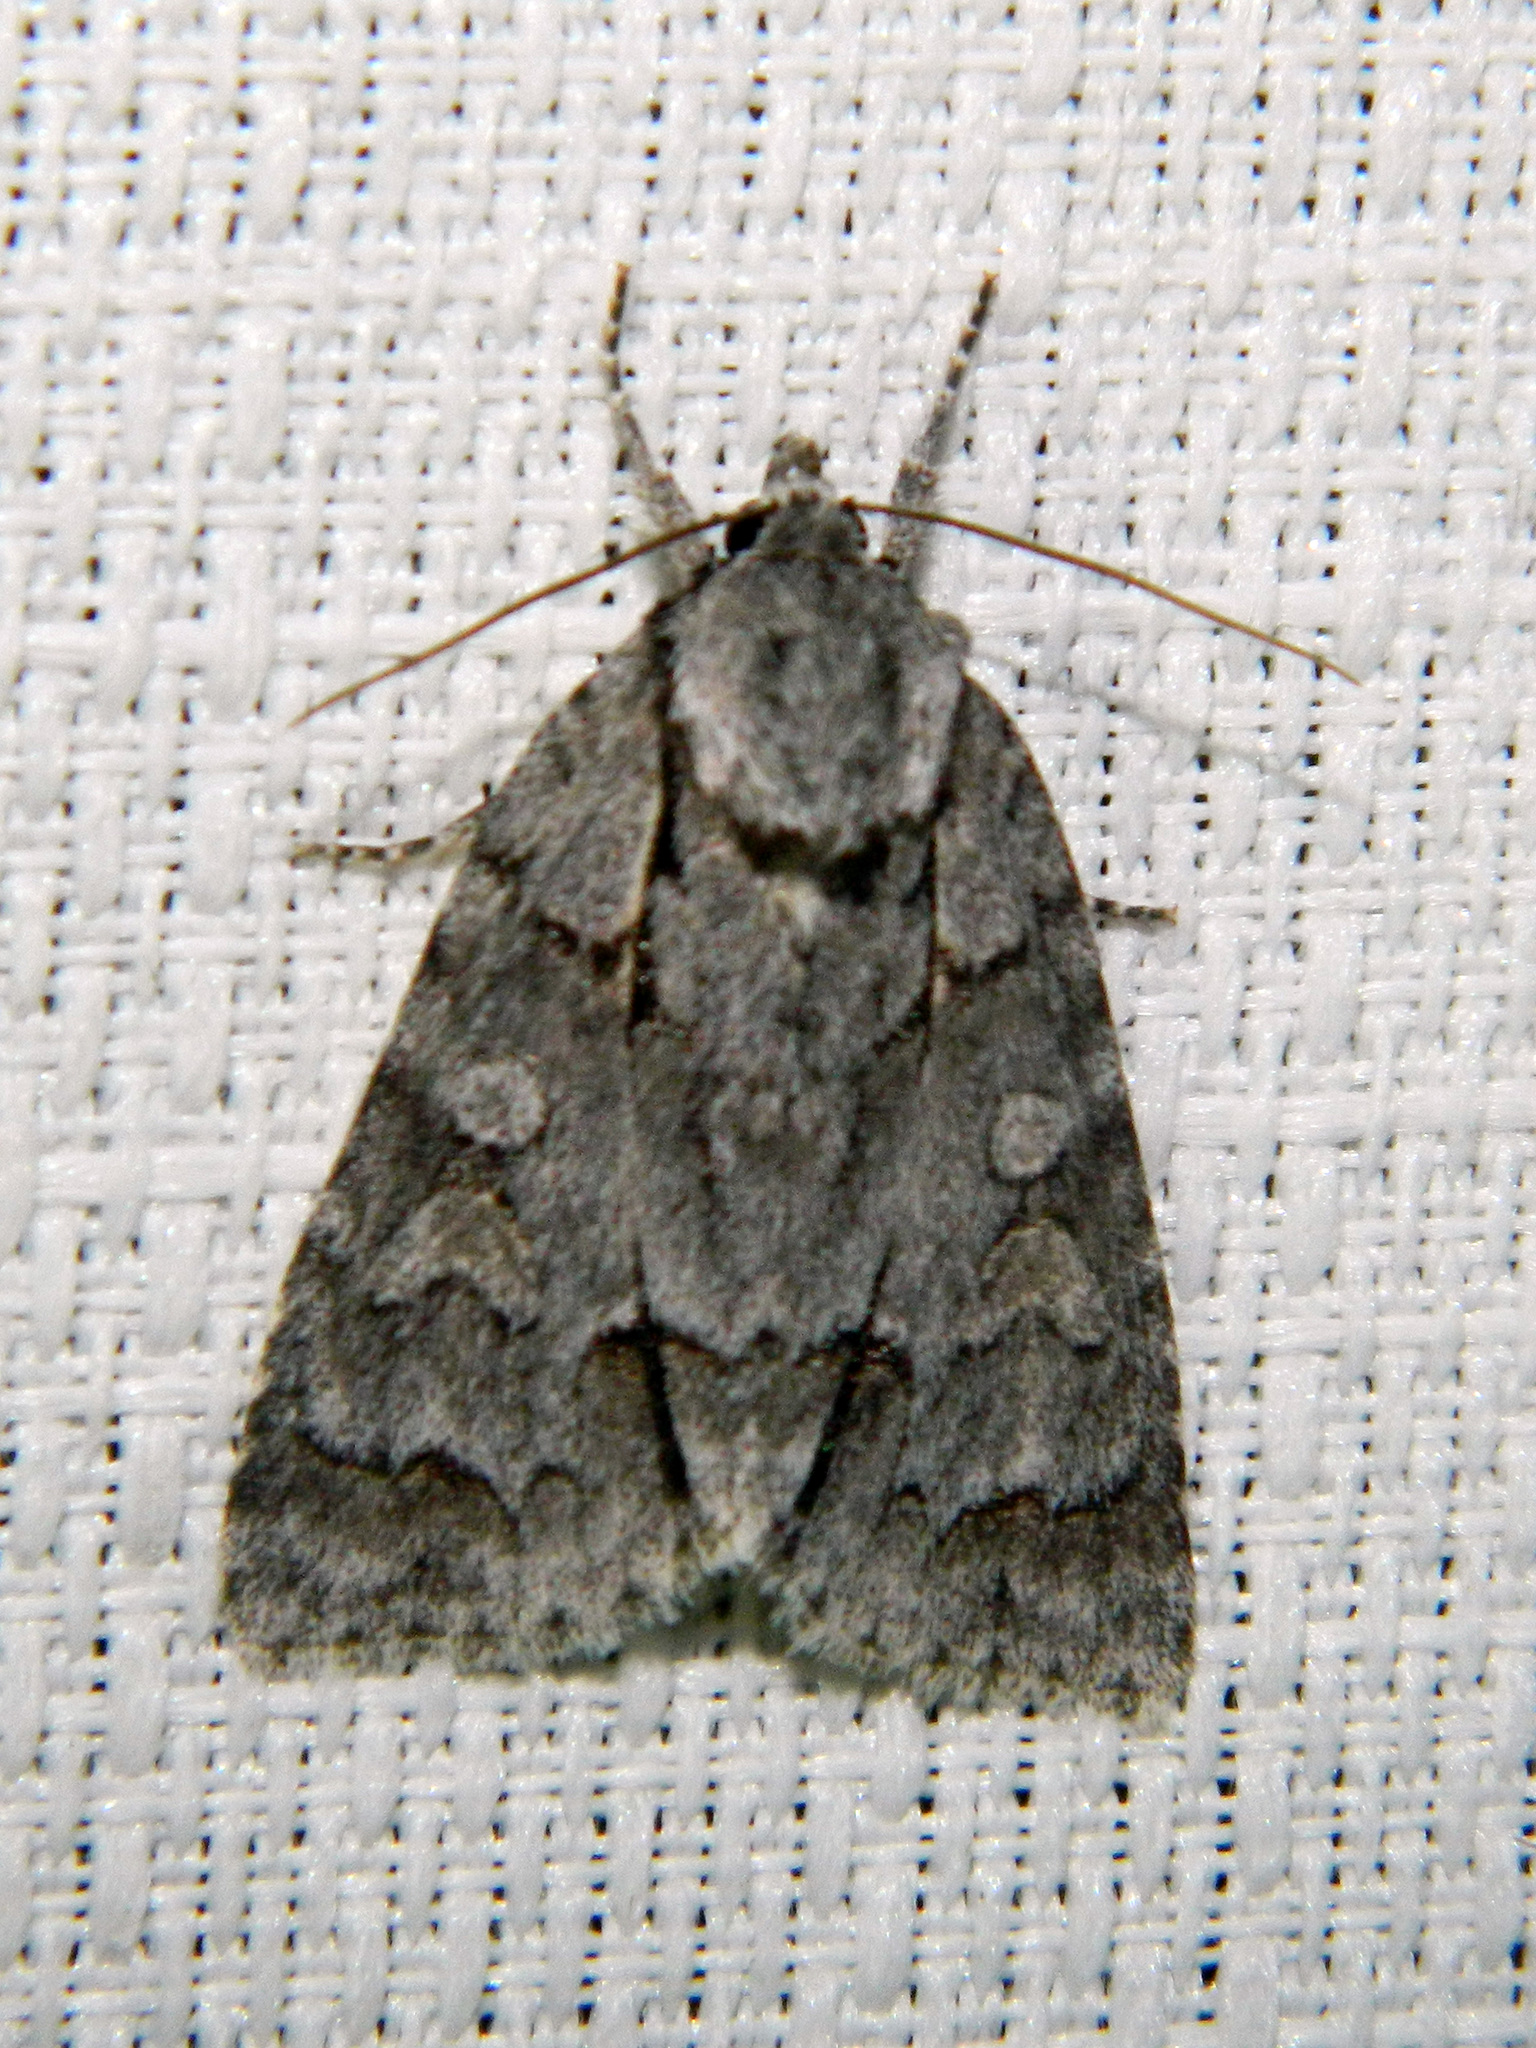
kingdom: Animalia
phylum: Arthropoda
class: Insecta
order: Lepidoptera
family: Noctuidae
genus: Acronicta
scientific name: Acronicta grisea
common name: Gray dagger
